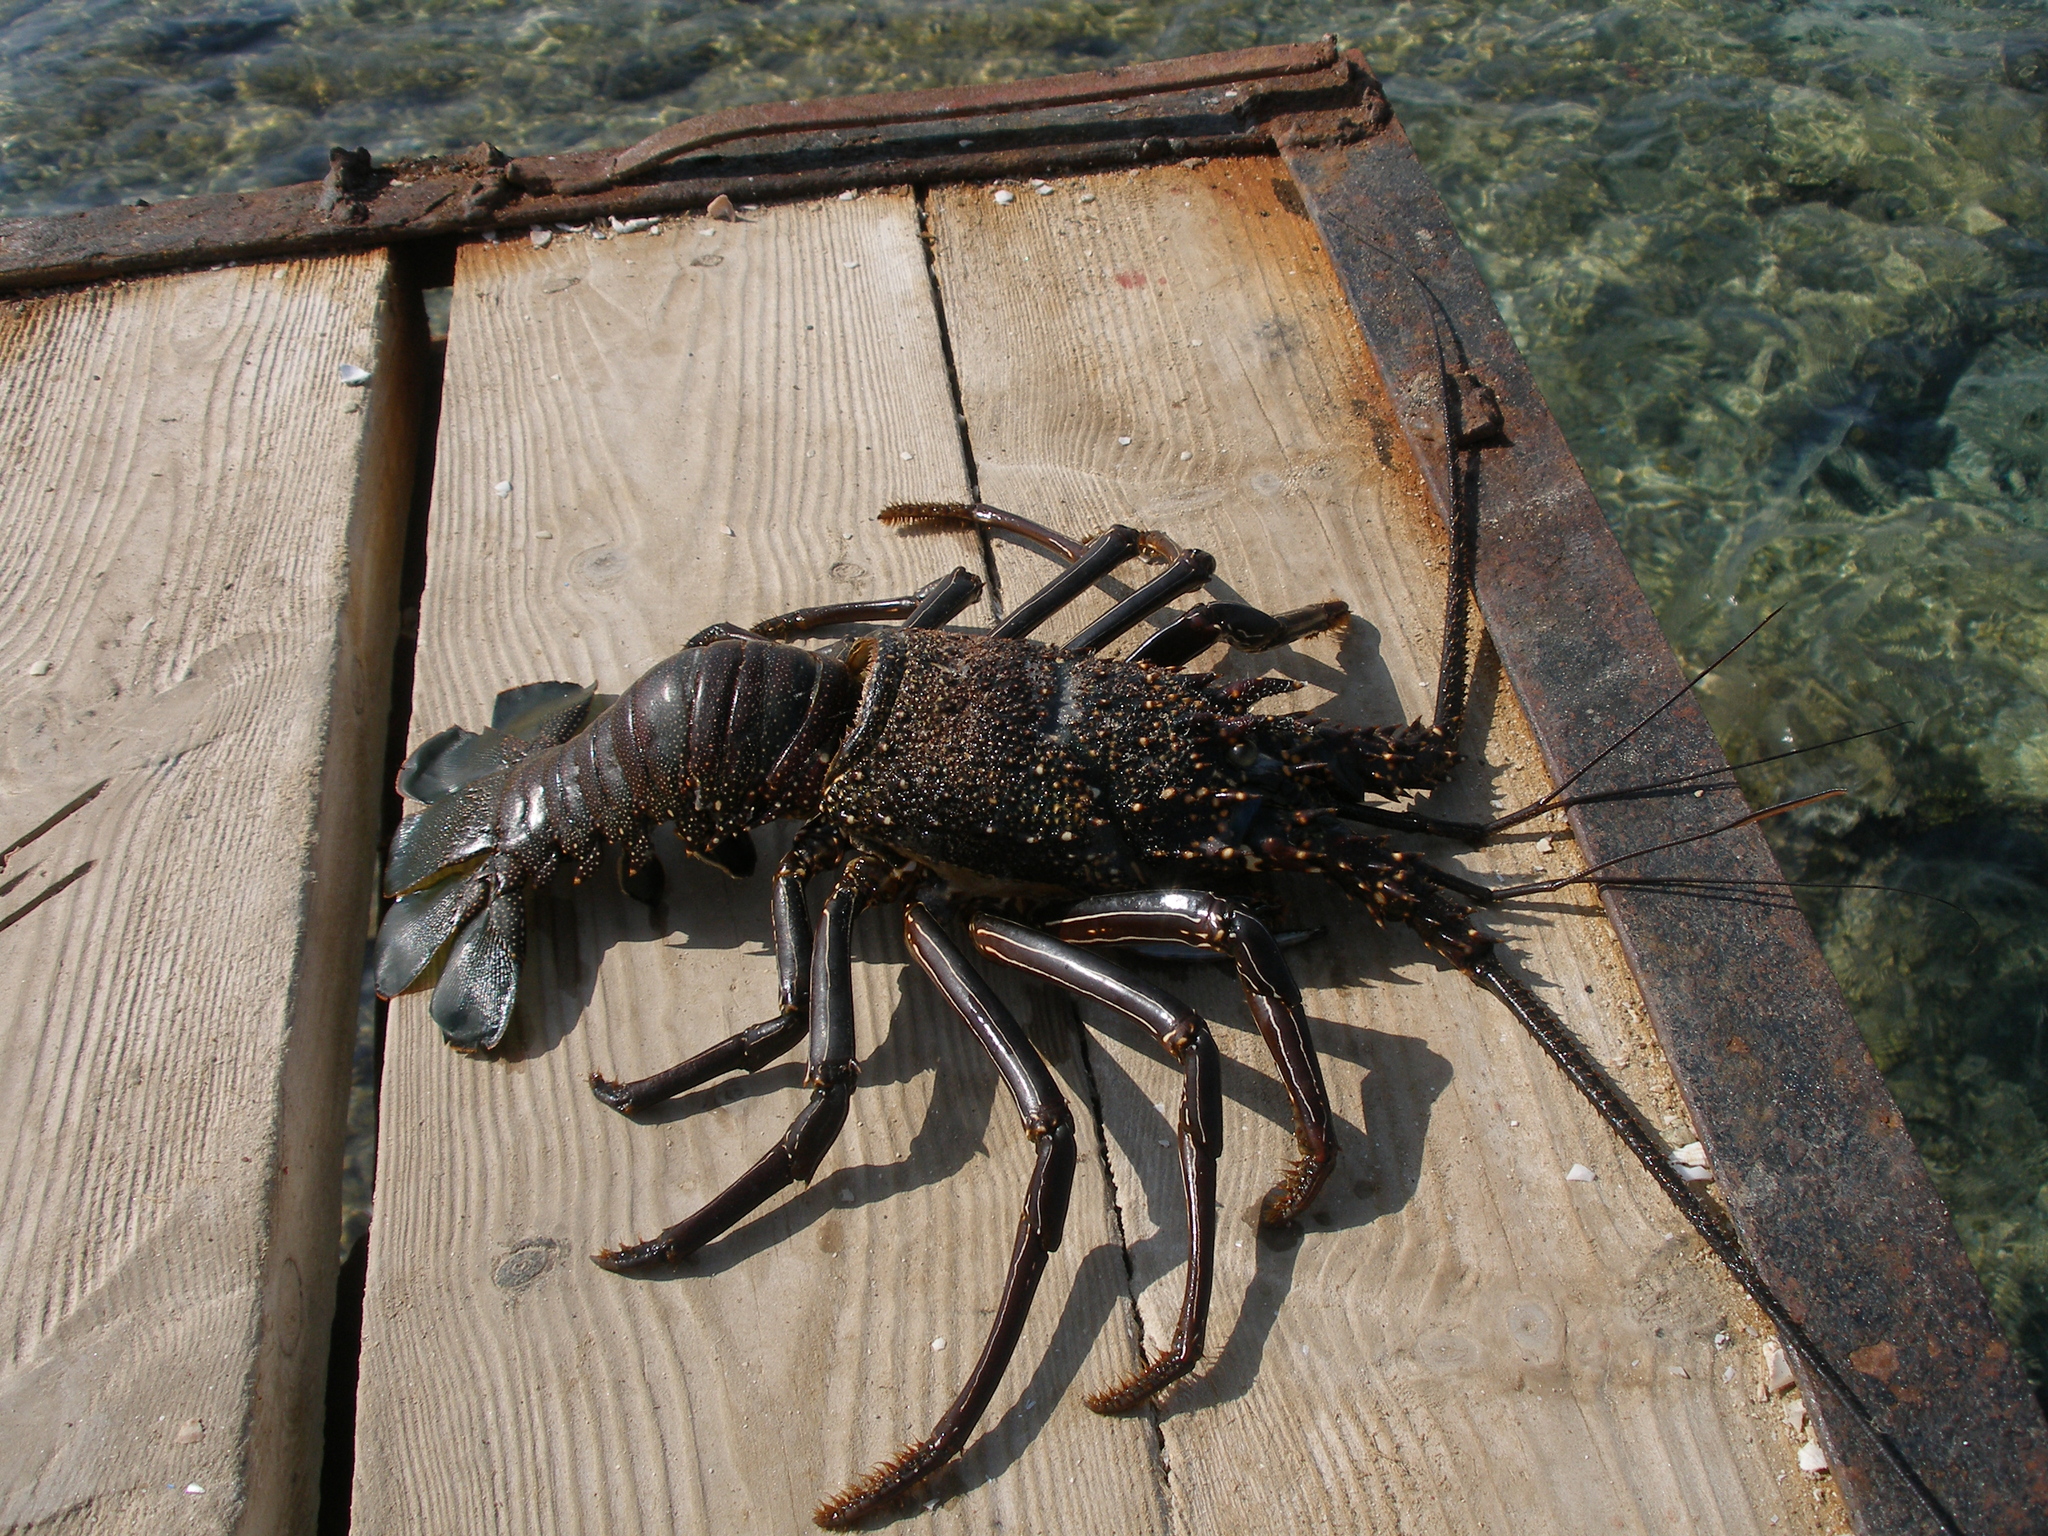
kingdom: Animalia
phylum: Arthropoda
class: Malacostraca
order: Decapoda
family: Palinuridae
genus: Panulirus
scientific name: Panulirus penicillatus
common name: Pronghorn spiny lobster
